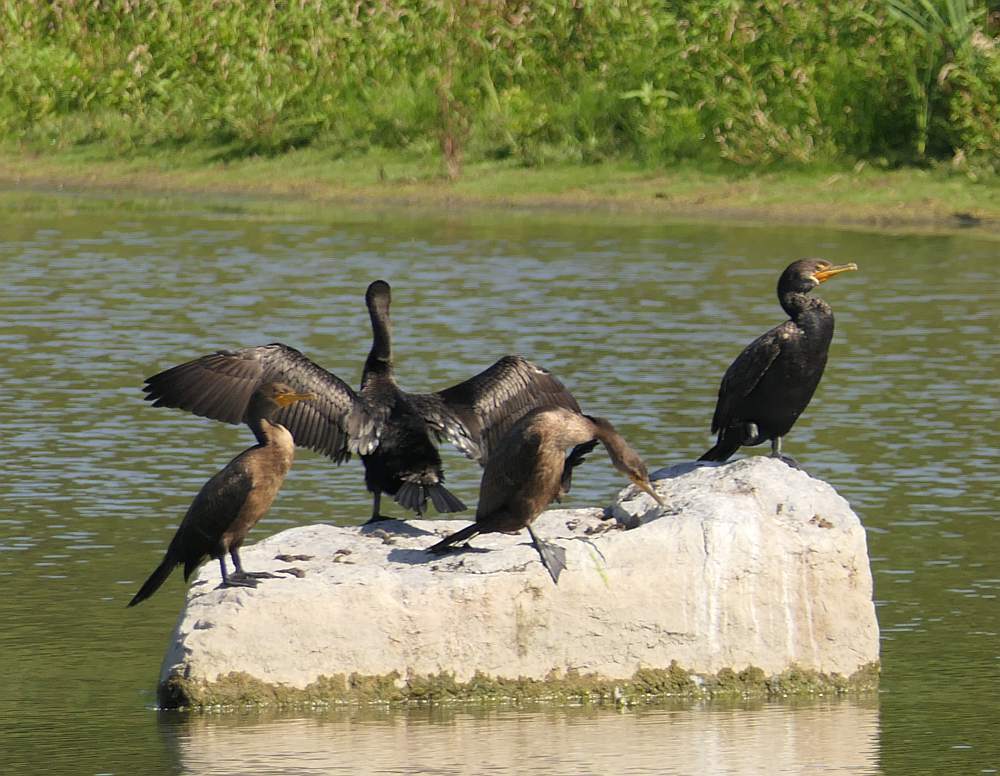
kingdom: Animalia
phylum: Chordata
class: Aves
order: Suliformes
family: Phalacrocoracidae
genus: Phalacrocorax
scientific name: Phalacrocorax auritus
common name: Double-crested cormorant
